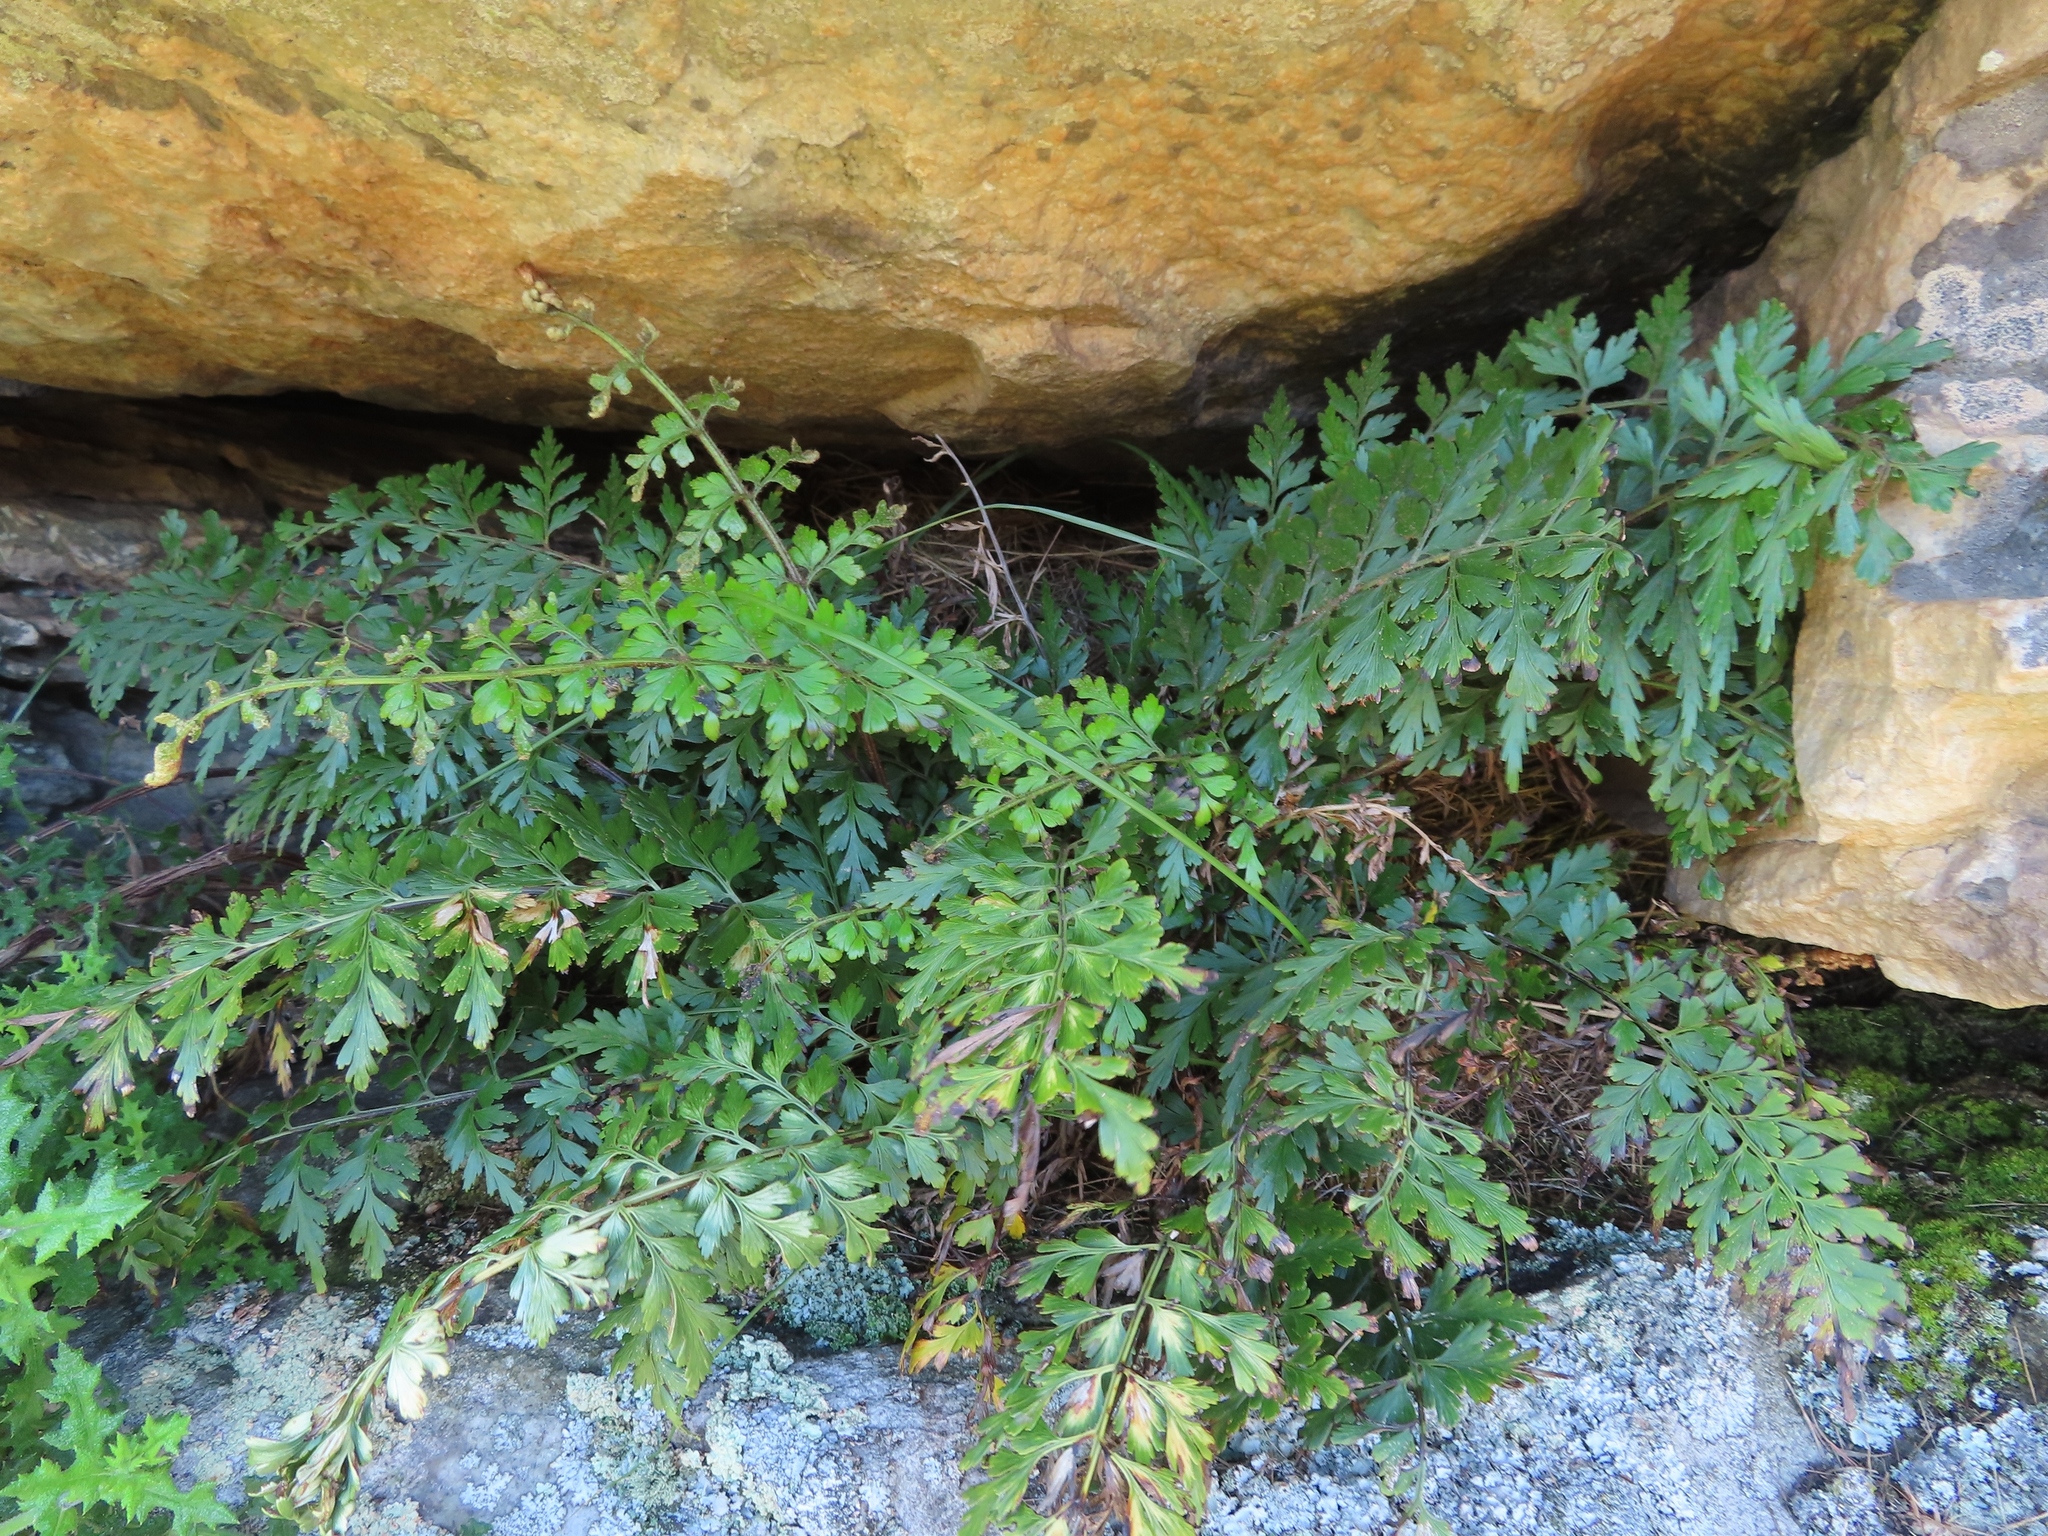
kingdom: Plantae
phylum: Tracheophyta
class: Polypodiopsida
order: Polypodiales
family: Aspleniaceae
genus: Asplenium
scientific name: Asplenium aethiopicum
